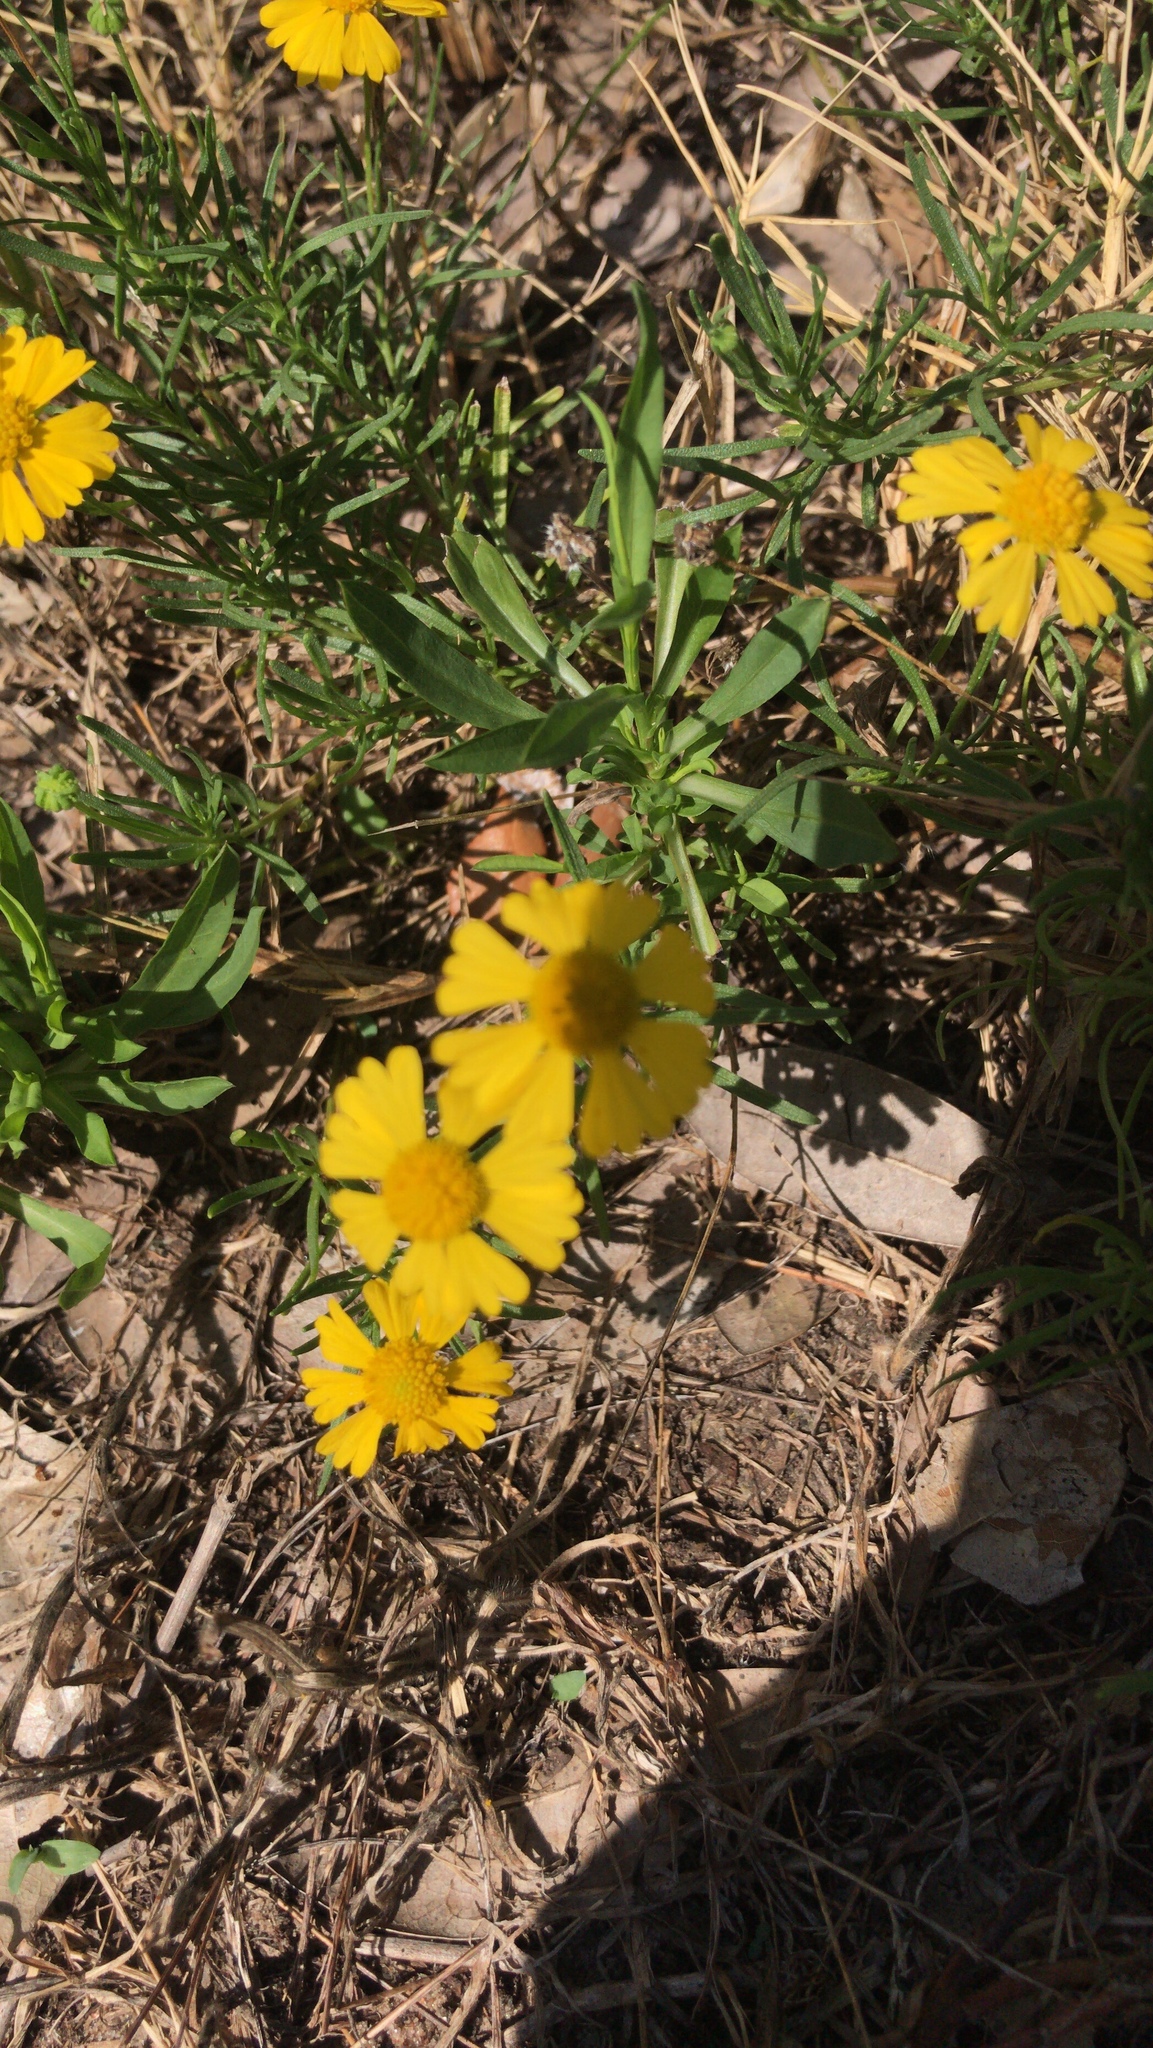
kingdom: Plantae
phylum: Tracheophyta
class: Magnoliopsida
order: Asterales
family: Asteraceae
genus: Helenium
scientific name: Helenium amarum
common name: Bitter sneezeweed
